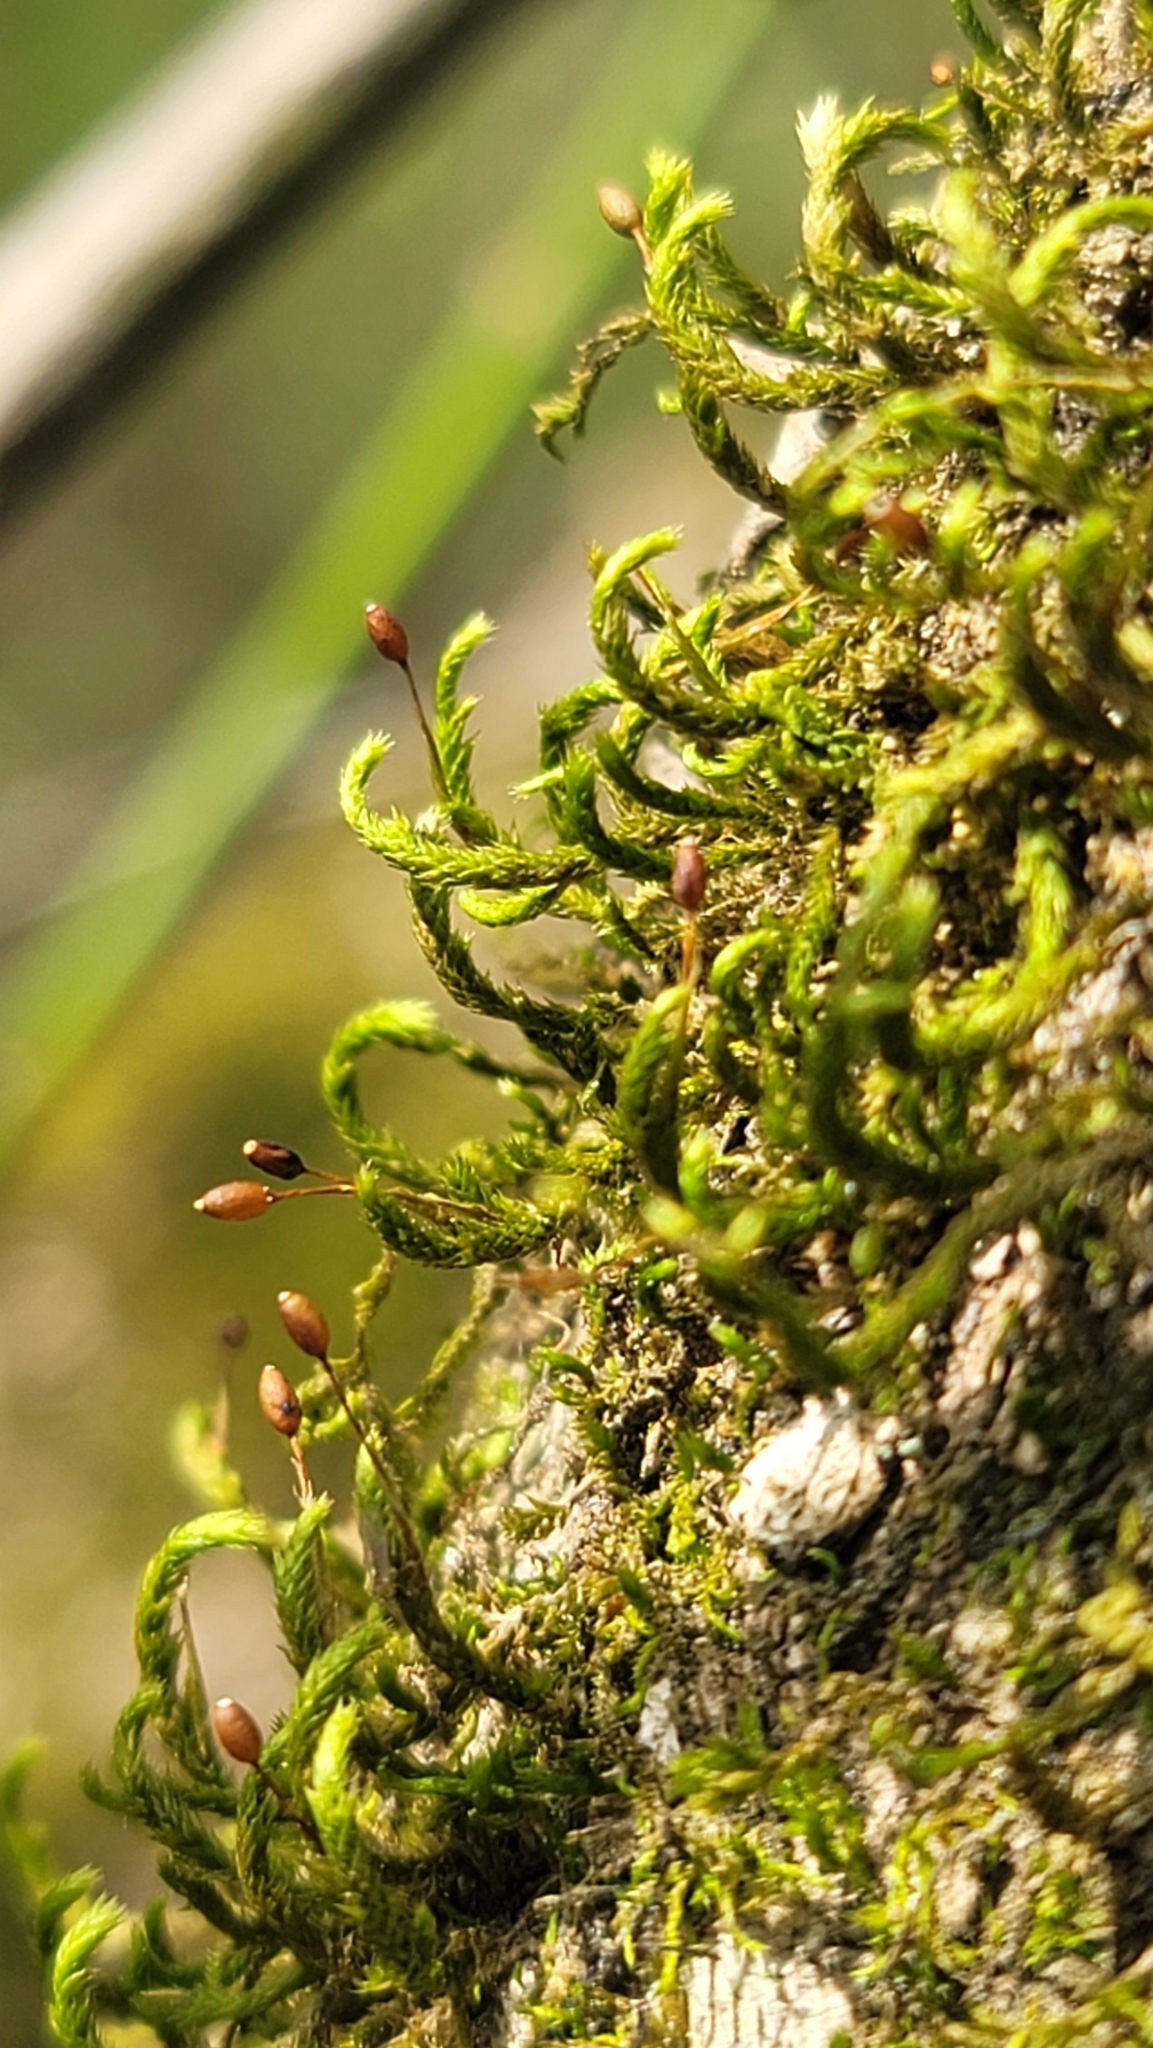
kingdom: Plantae
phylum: Bryophyta
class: Bryopsida
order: Hypnales
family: Leucodontaceae
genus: Leucodon
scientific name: Leucodon julaceus
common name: Smooth hook moss
